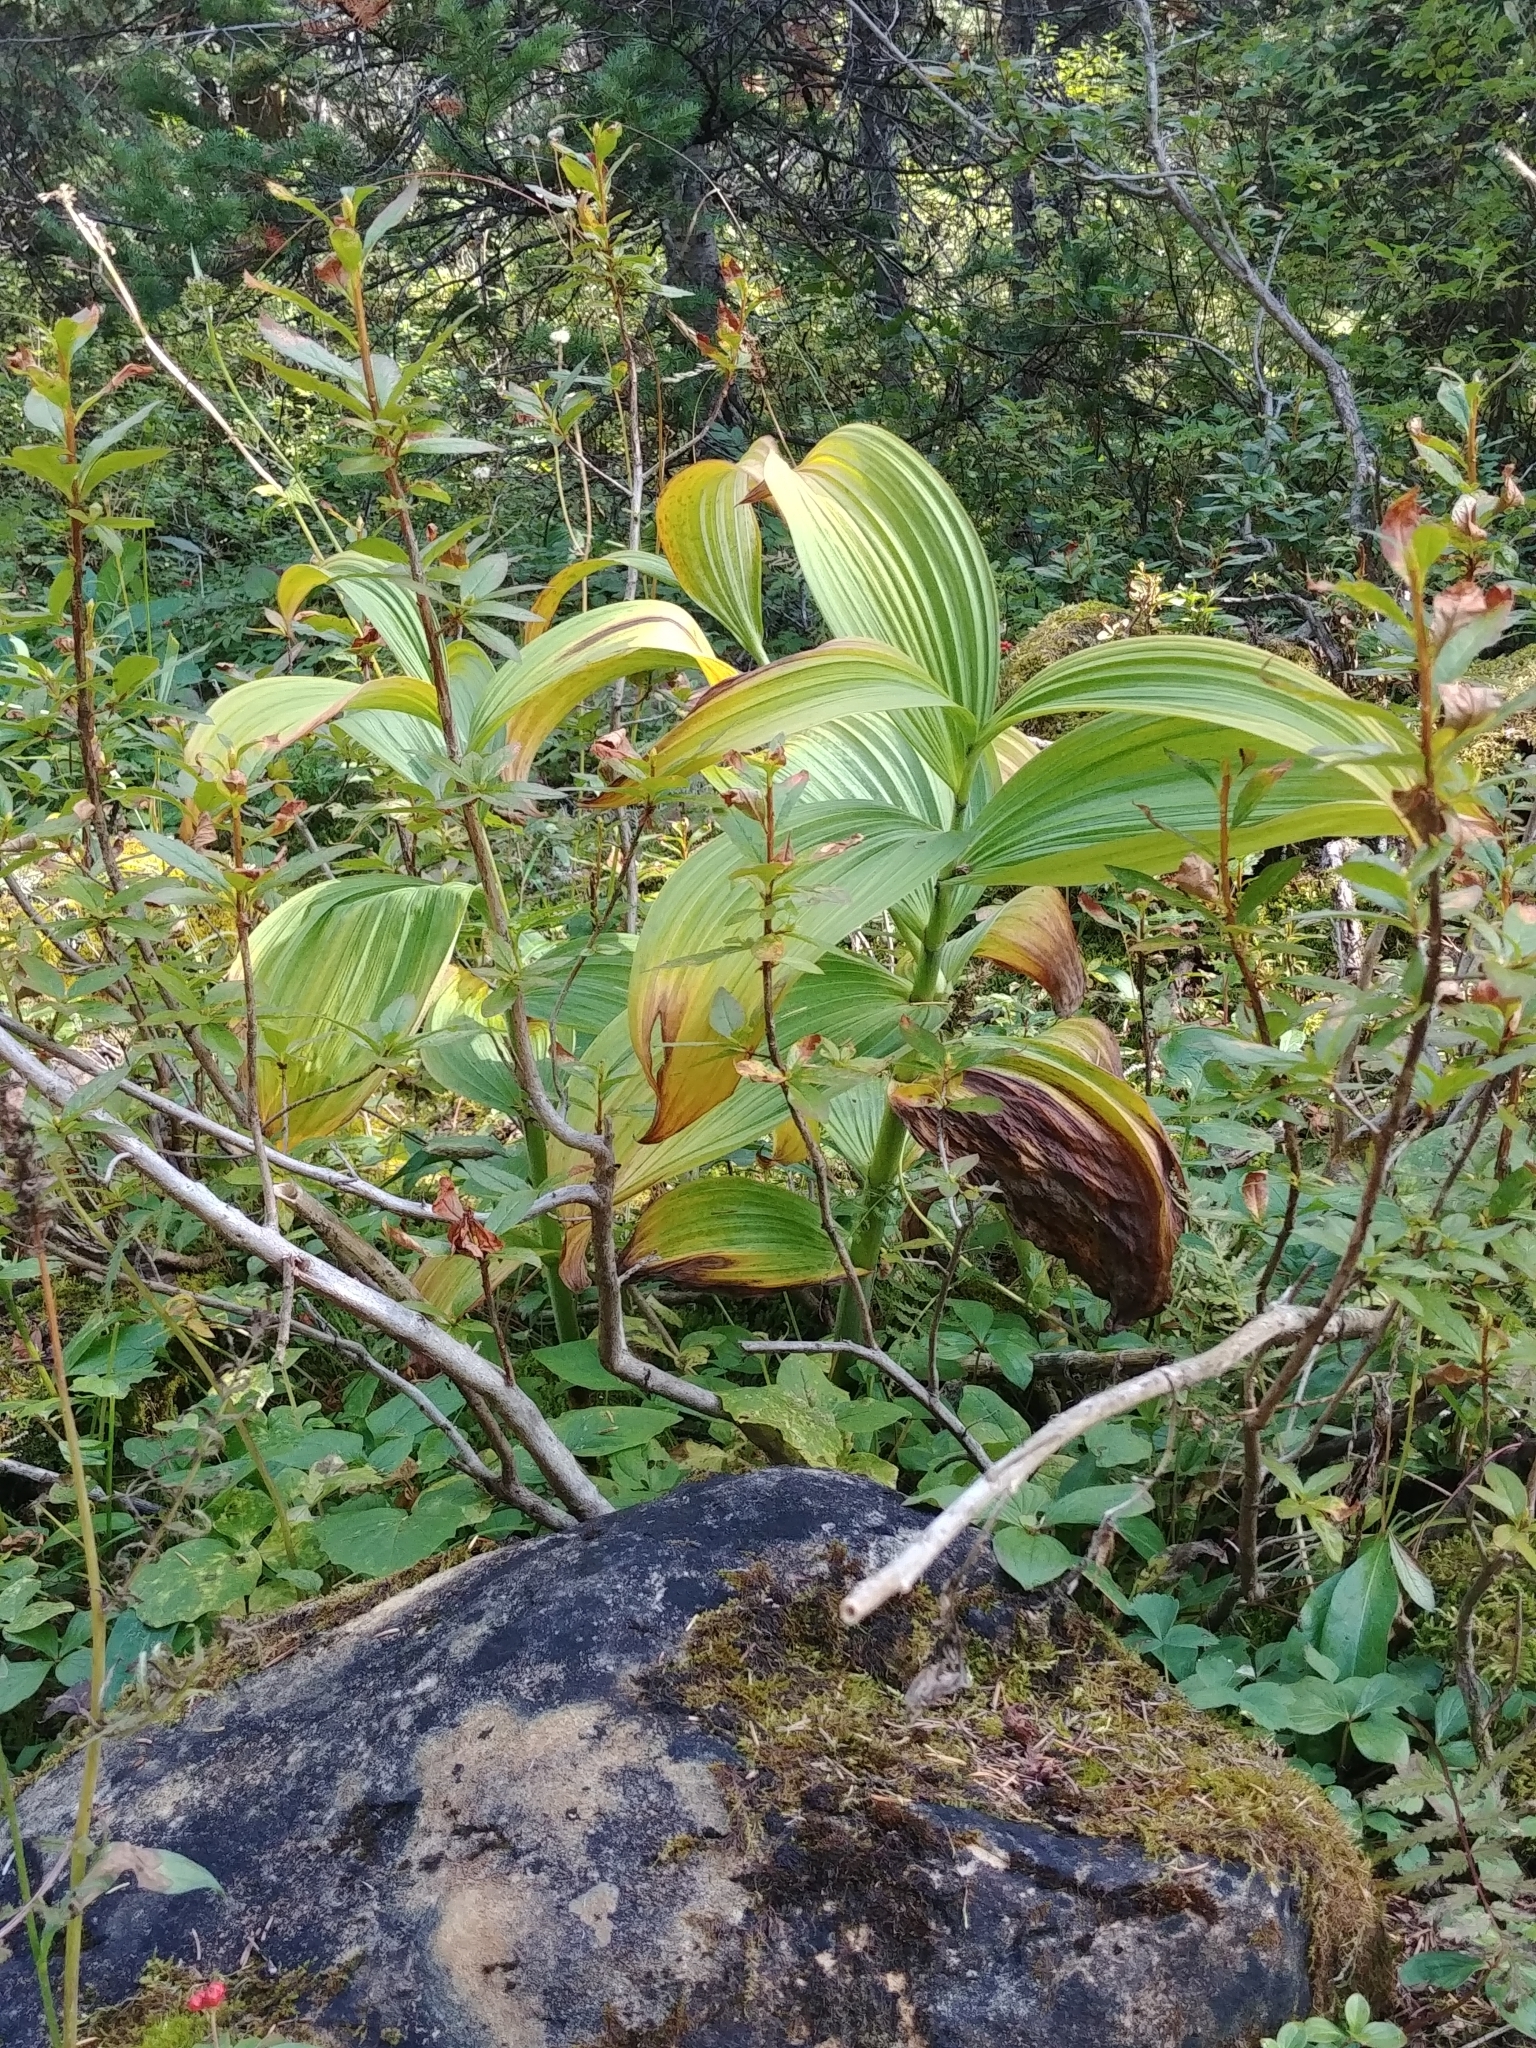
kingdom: Plantae
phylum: Tracheophyta
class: Liliopsida
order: Liliales
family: Melanthiaceae
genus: Veratrum
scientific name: Veratrum viride
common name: American false hellebore
